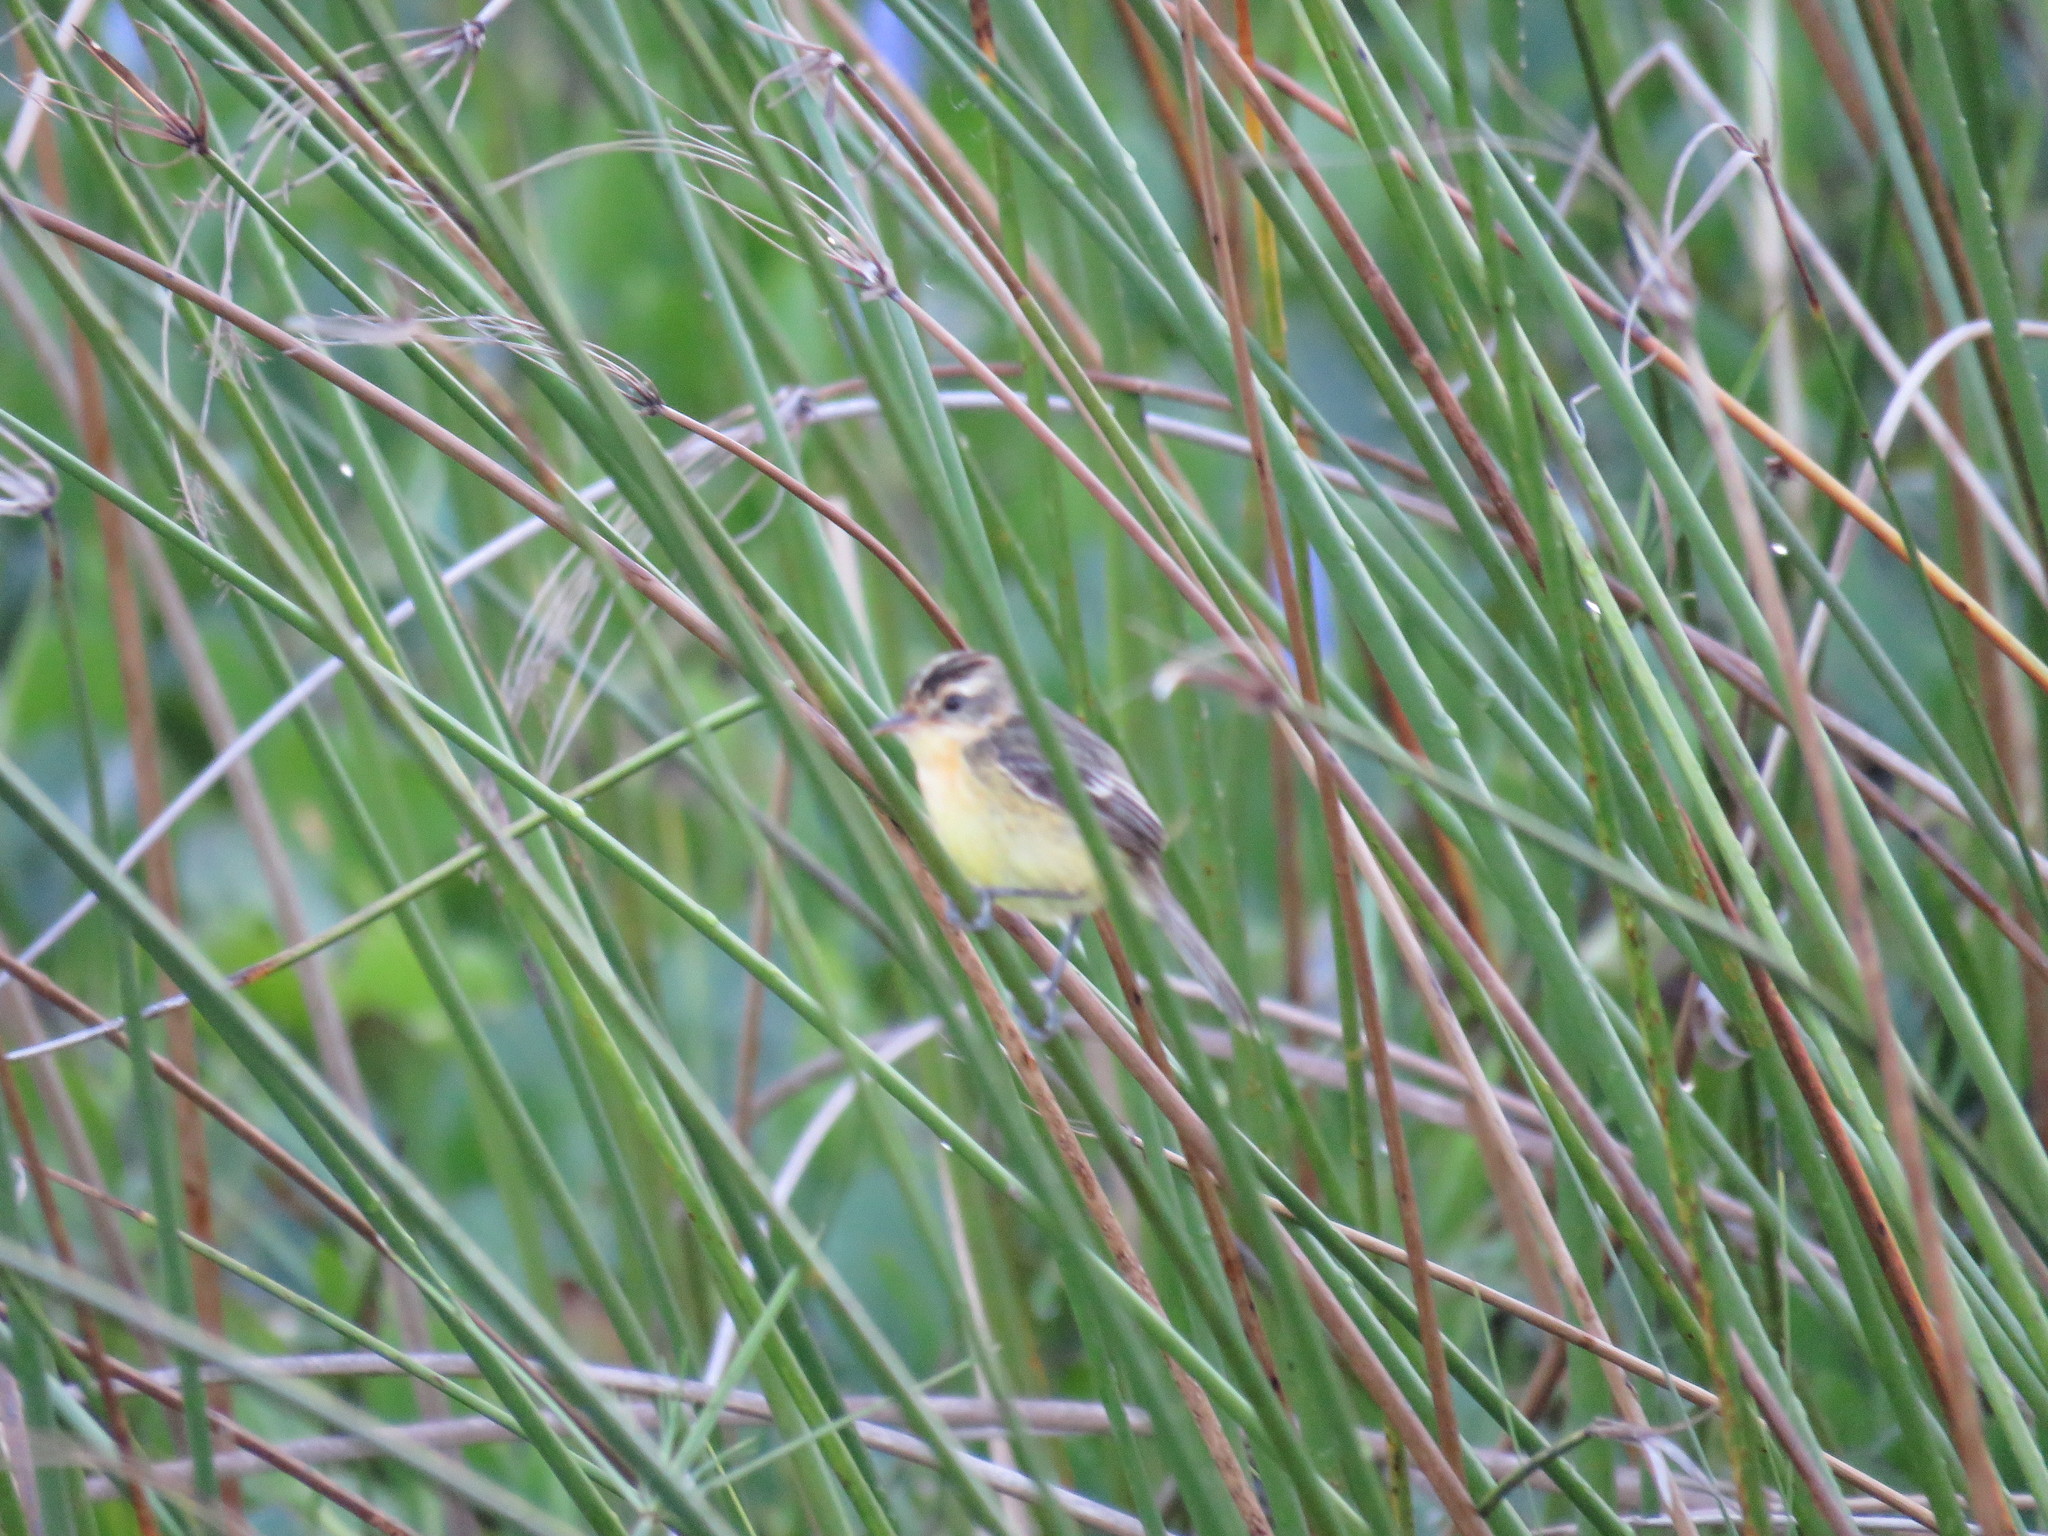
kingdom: Animalia
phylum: Chordata
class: Aves
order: Passeriformes
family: Tyrannidae
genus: Polystictus
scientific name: Polystictus pectoralis
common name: Bearded tachuri
